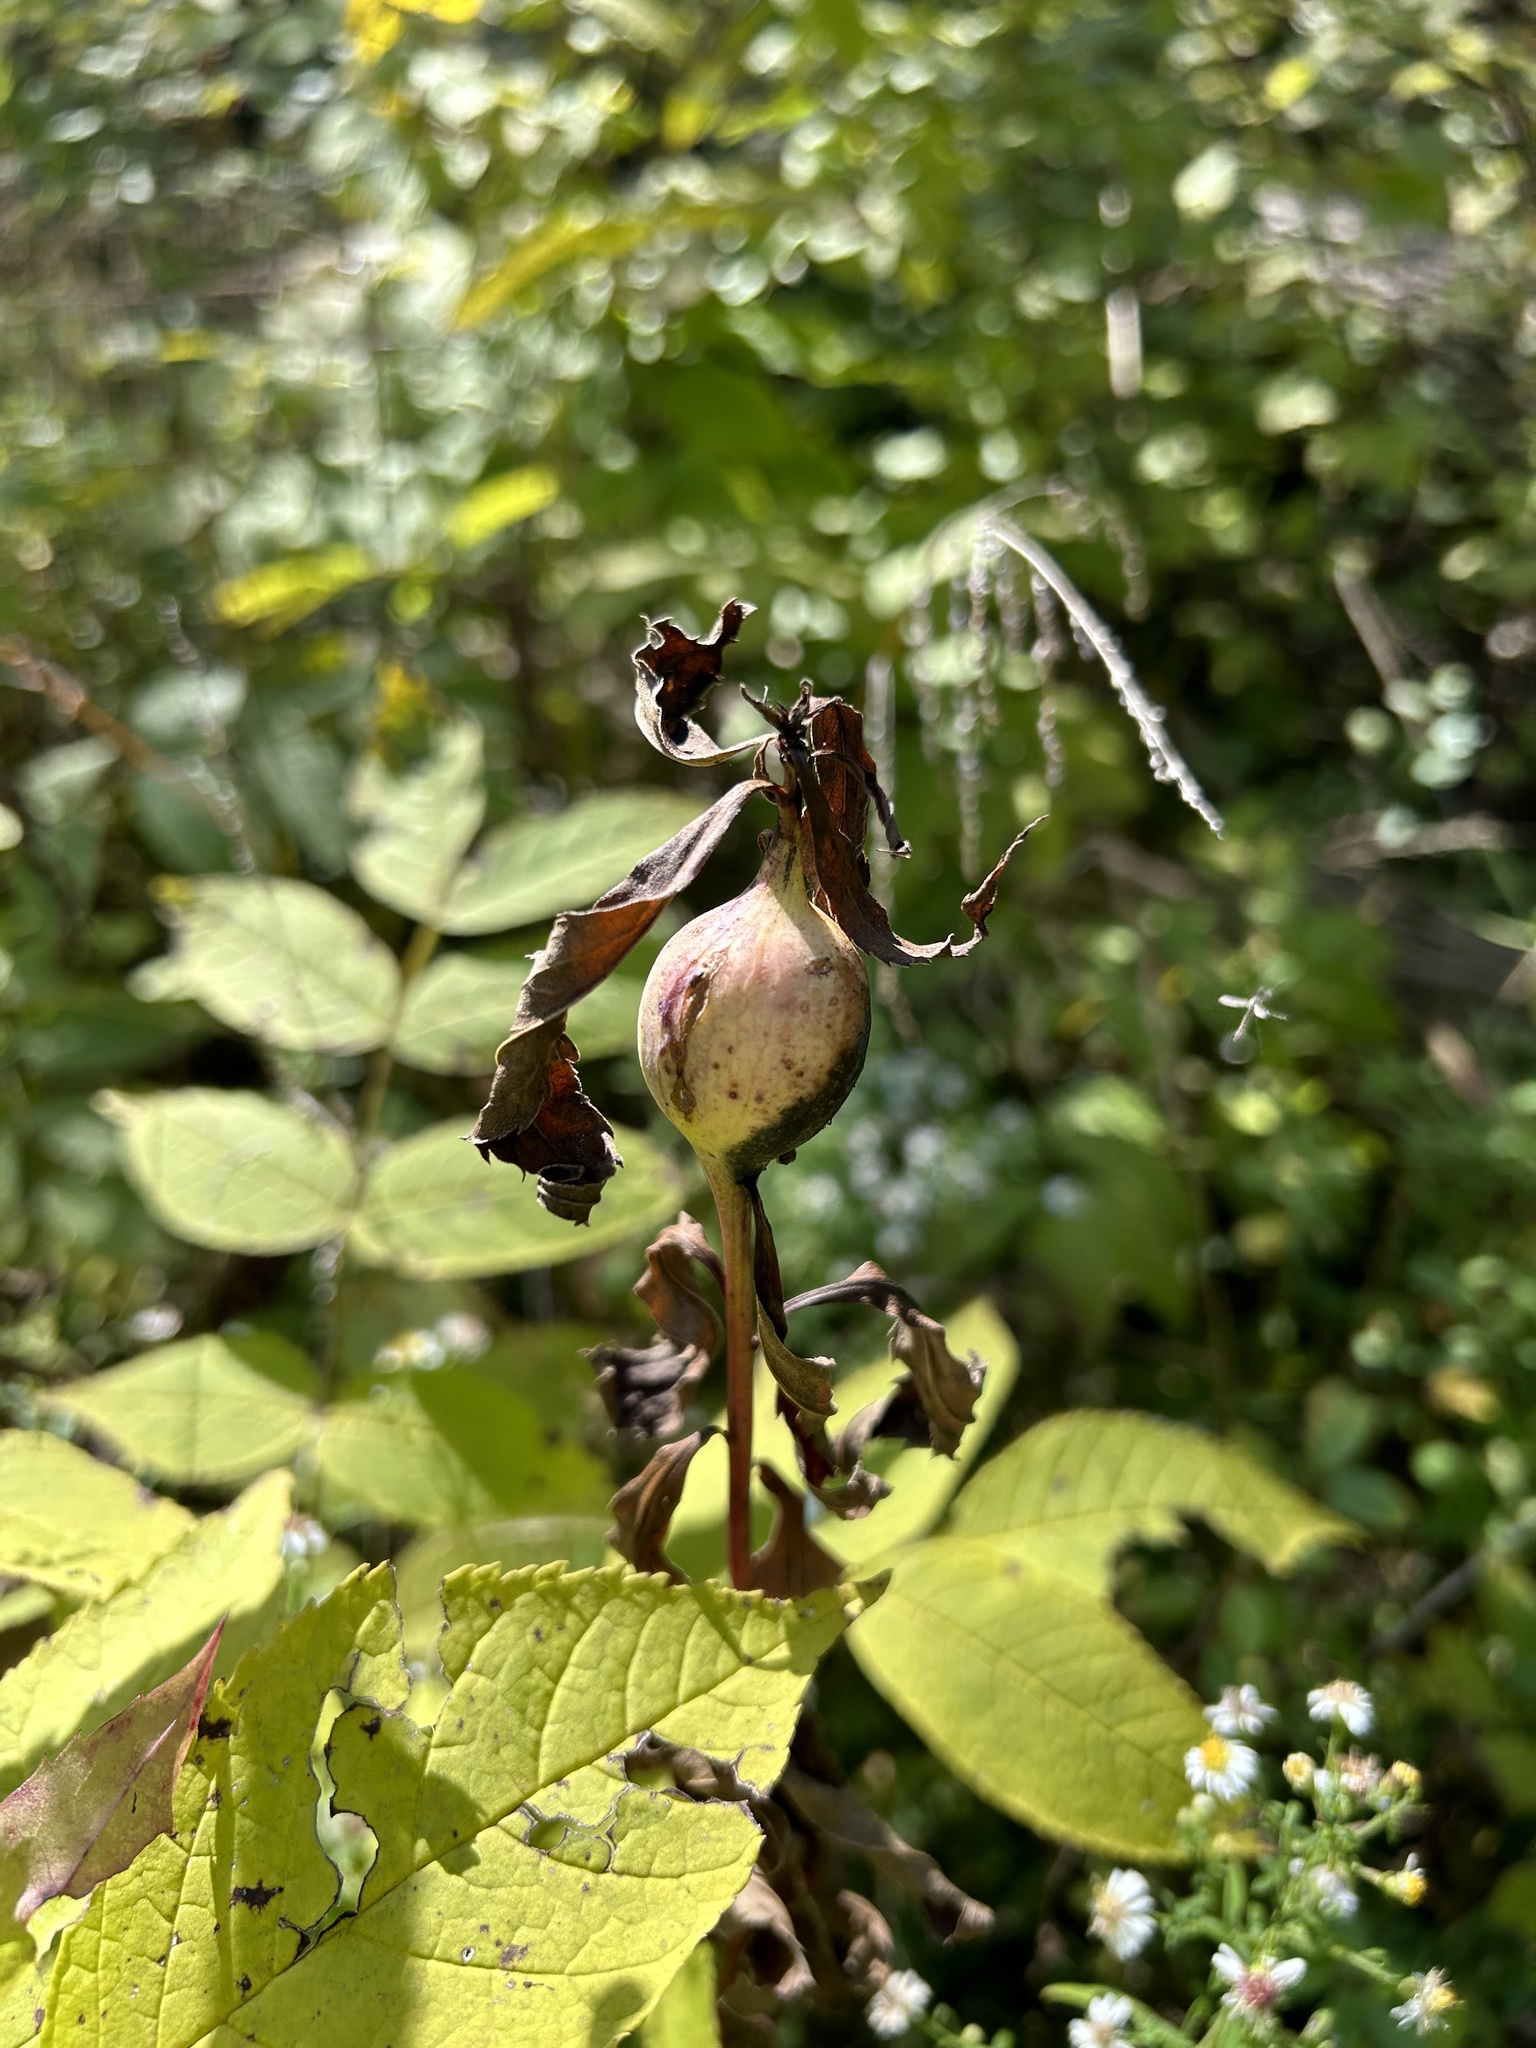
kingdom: Animalia
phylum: Arthropoda
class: Insecta
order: Diptera
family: Tephritidae
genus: Eurosta
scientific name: Eurosta solidaginis
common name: Goldenrod gall fly
